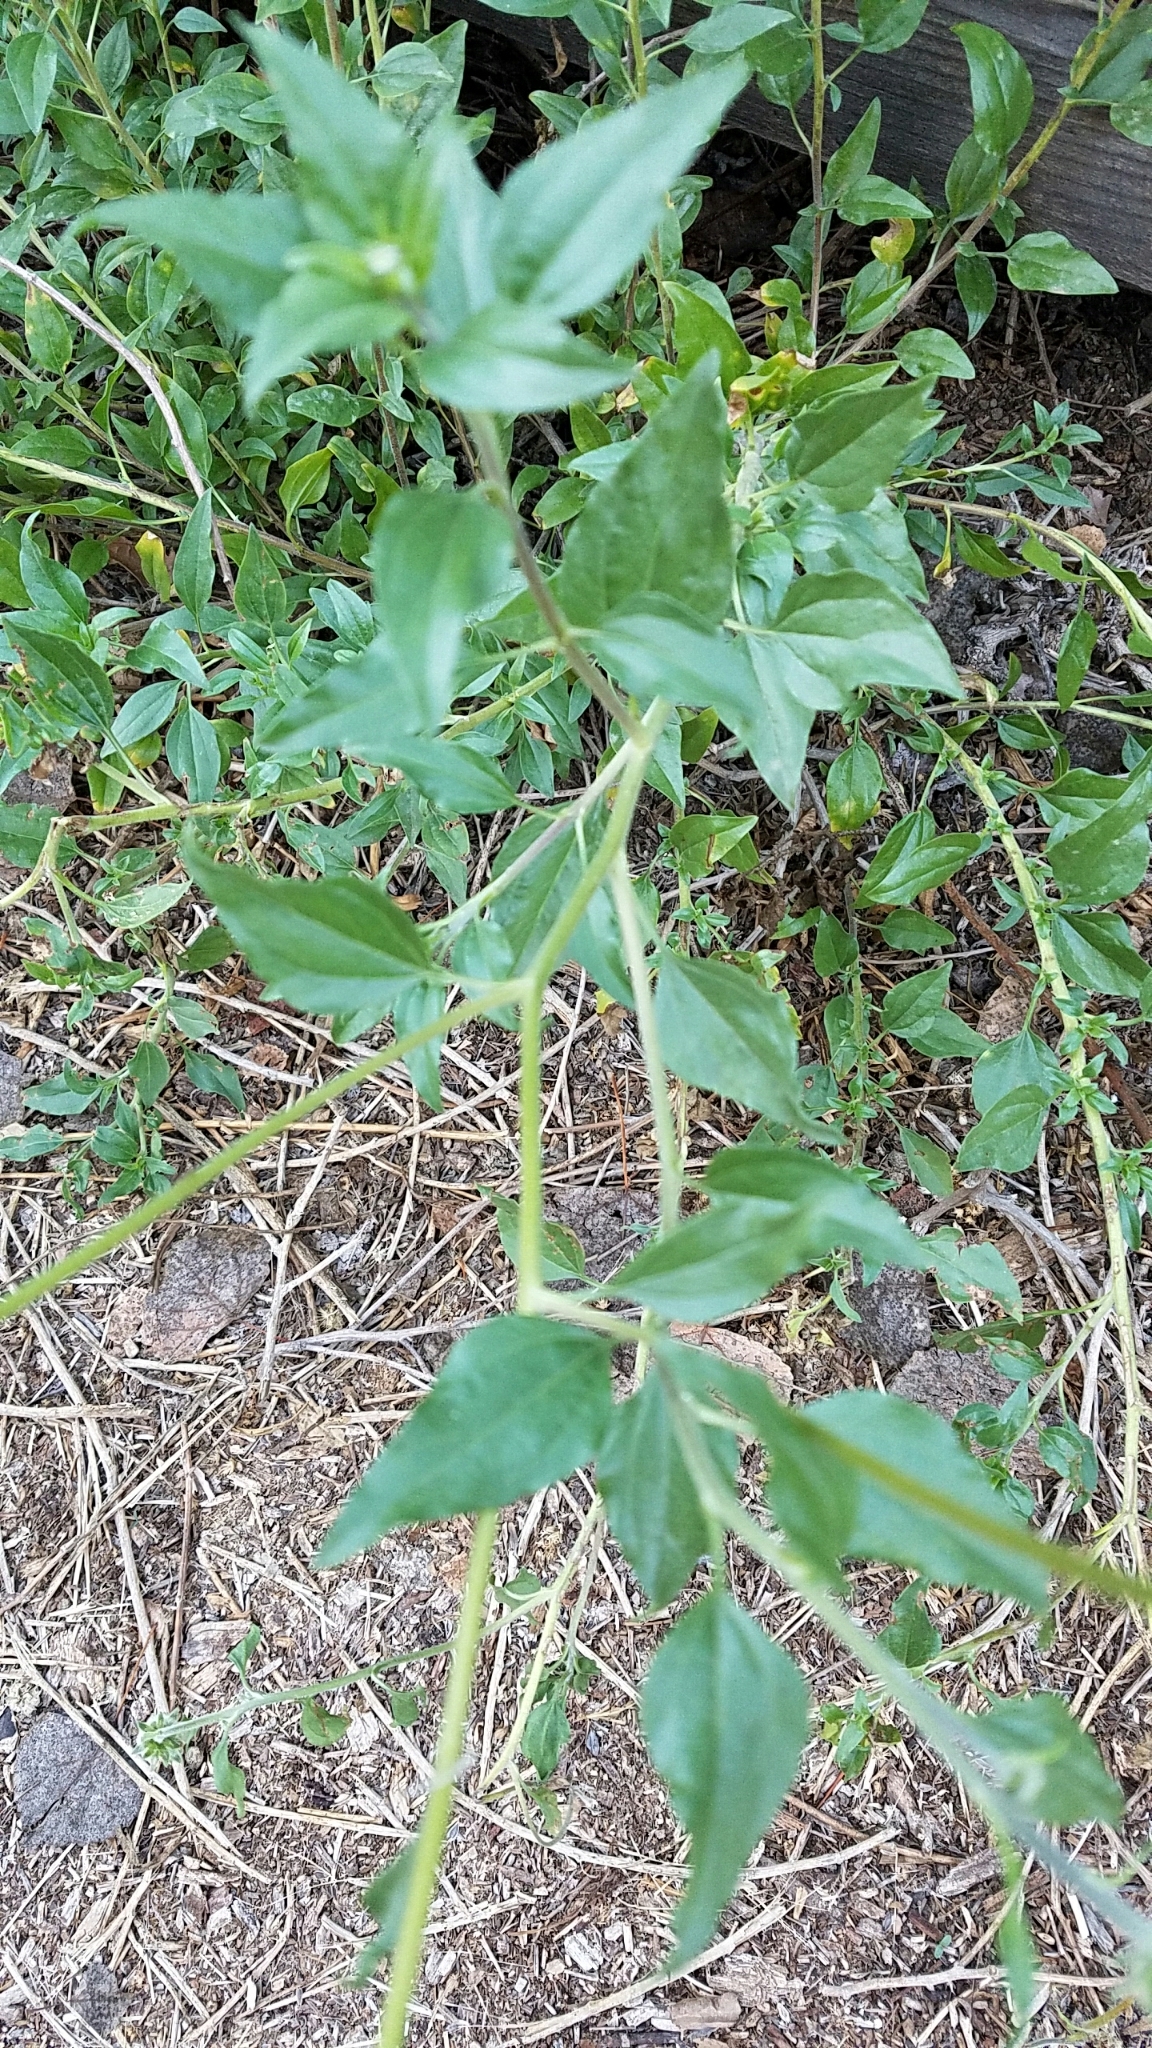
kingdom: Plantae
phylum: Tracheophyta
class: Magnoliopsida
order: Asterales
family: Asteraceae
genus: Encelia
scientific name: Encelia californica
